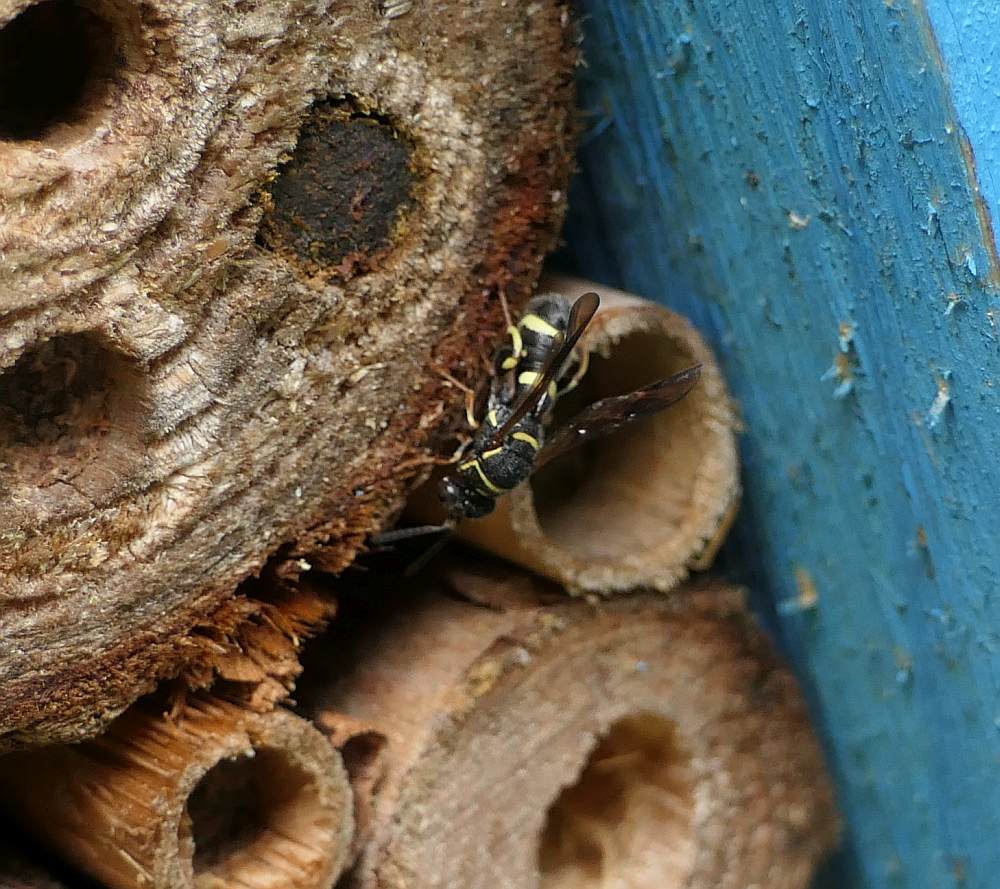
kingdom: Animalia
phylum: Arthropoda
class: Insecta
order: Hymenoptera
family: Leucospidae
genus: Leucospis
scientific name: Leucospis affinis
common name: Wasp
